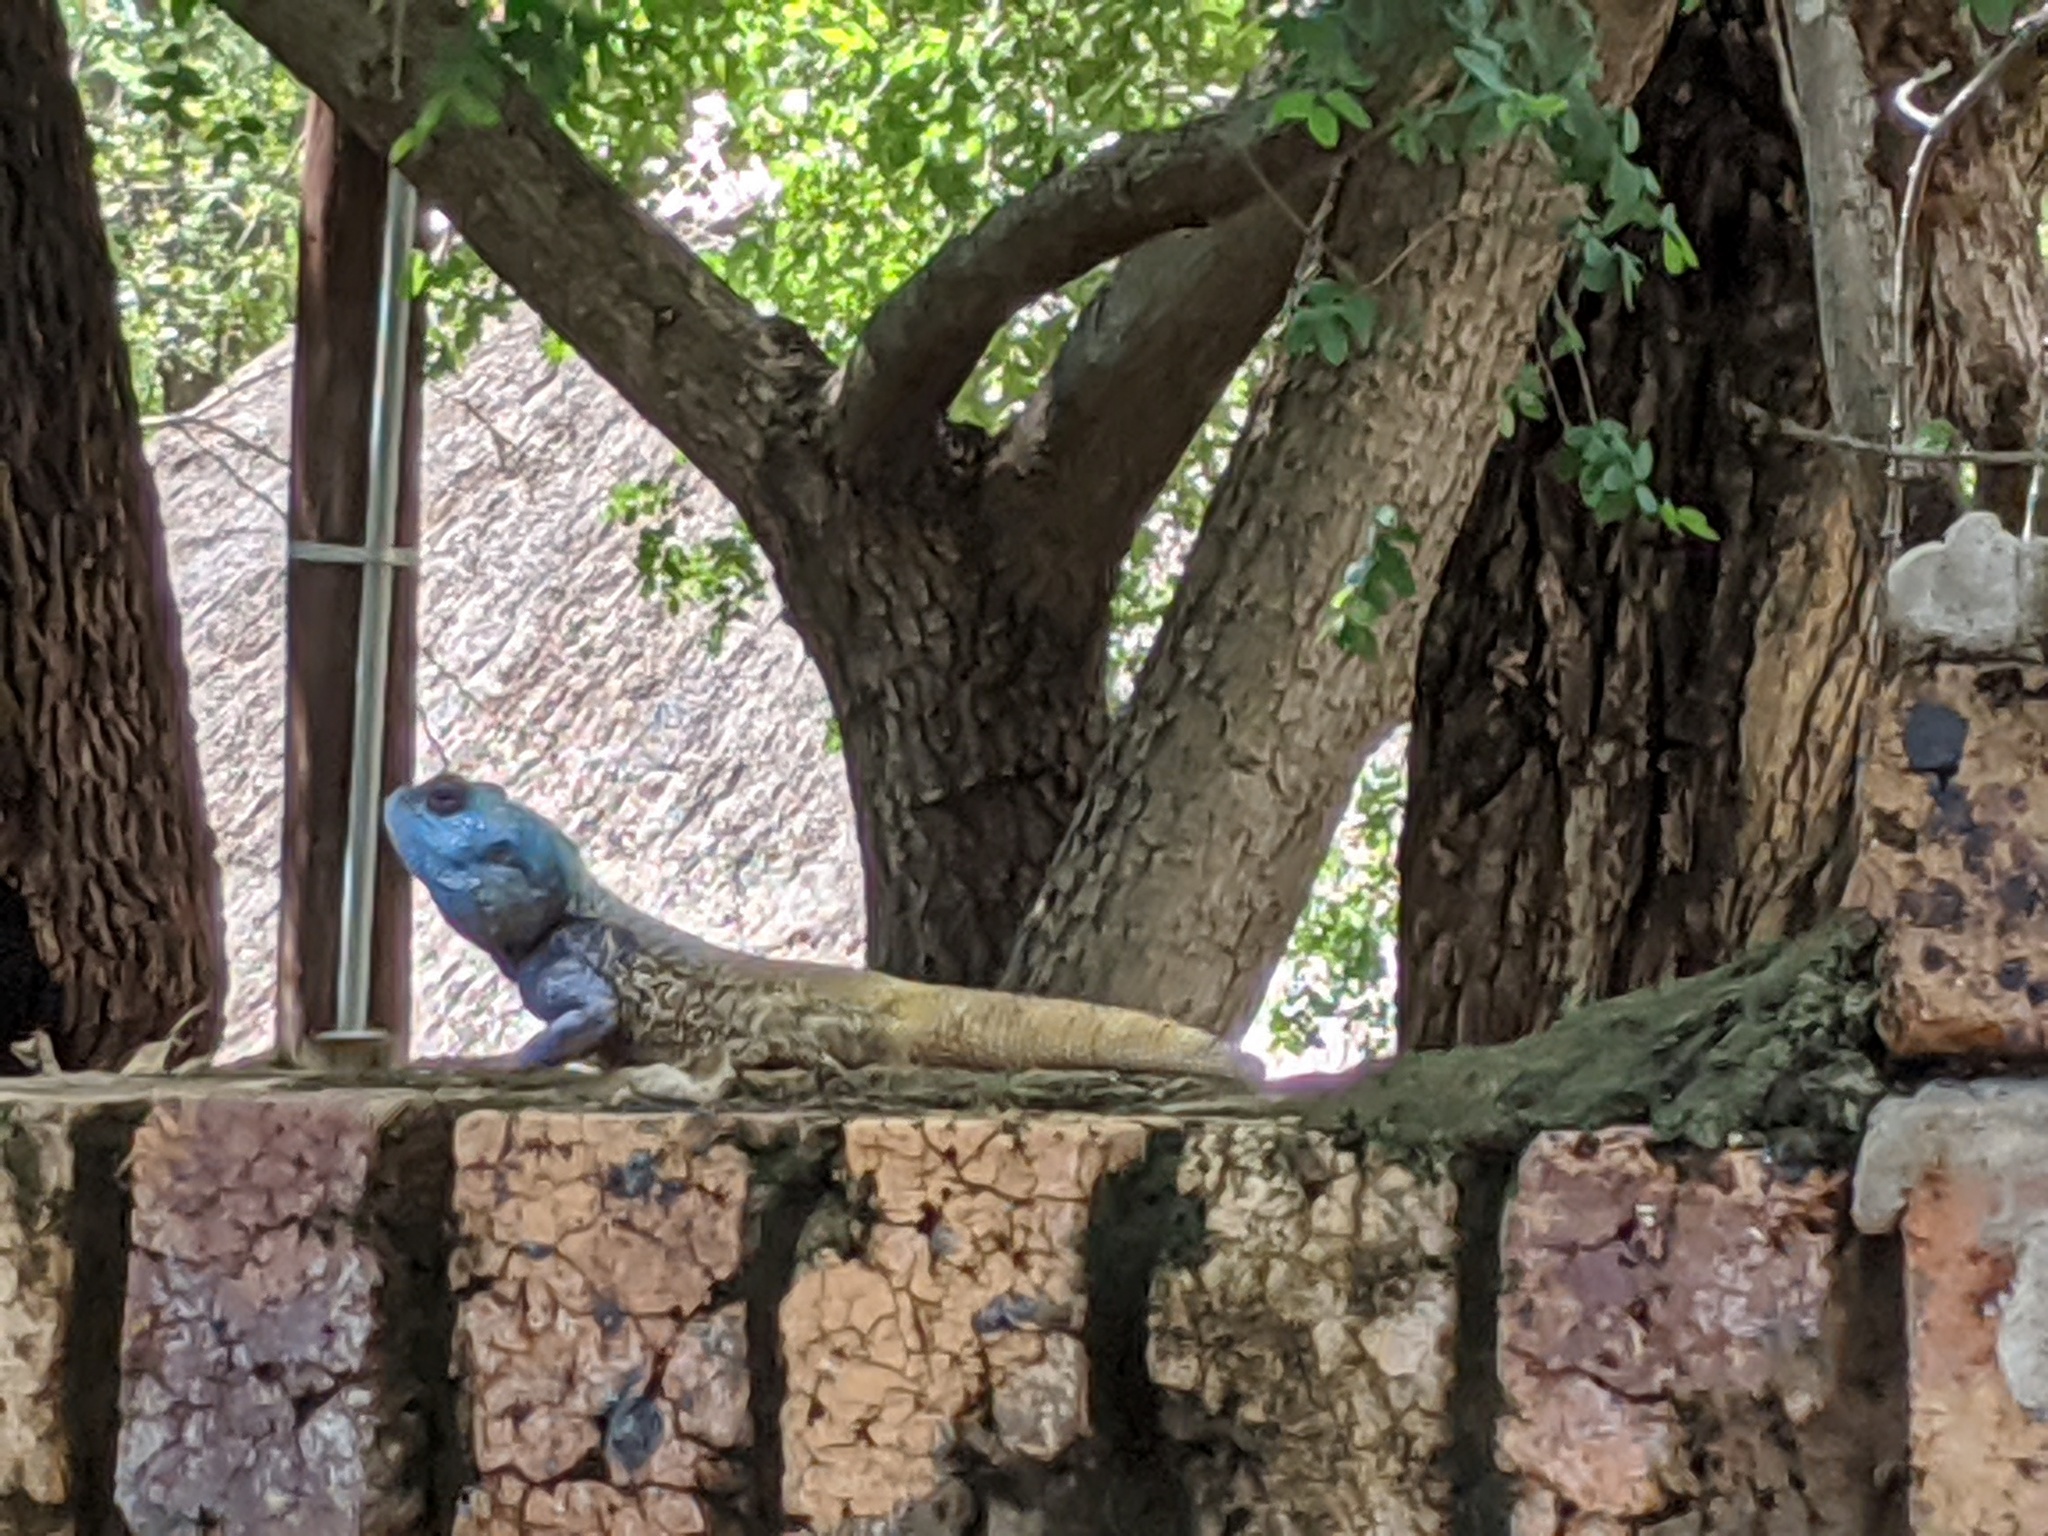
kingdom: Animalia
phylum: Chordata
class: Squamata
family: Agamidae
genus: Acanthocercus
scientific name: Acanthocercus atricollis
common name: Southern tree agama
